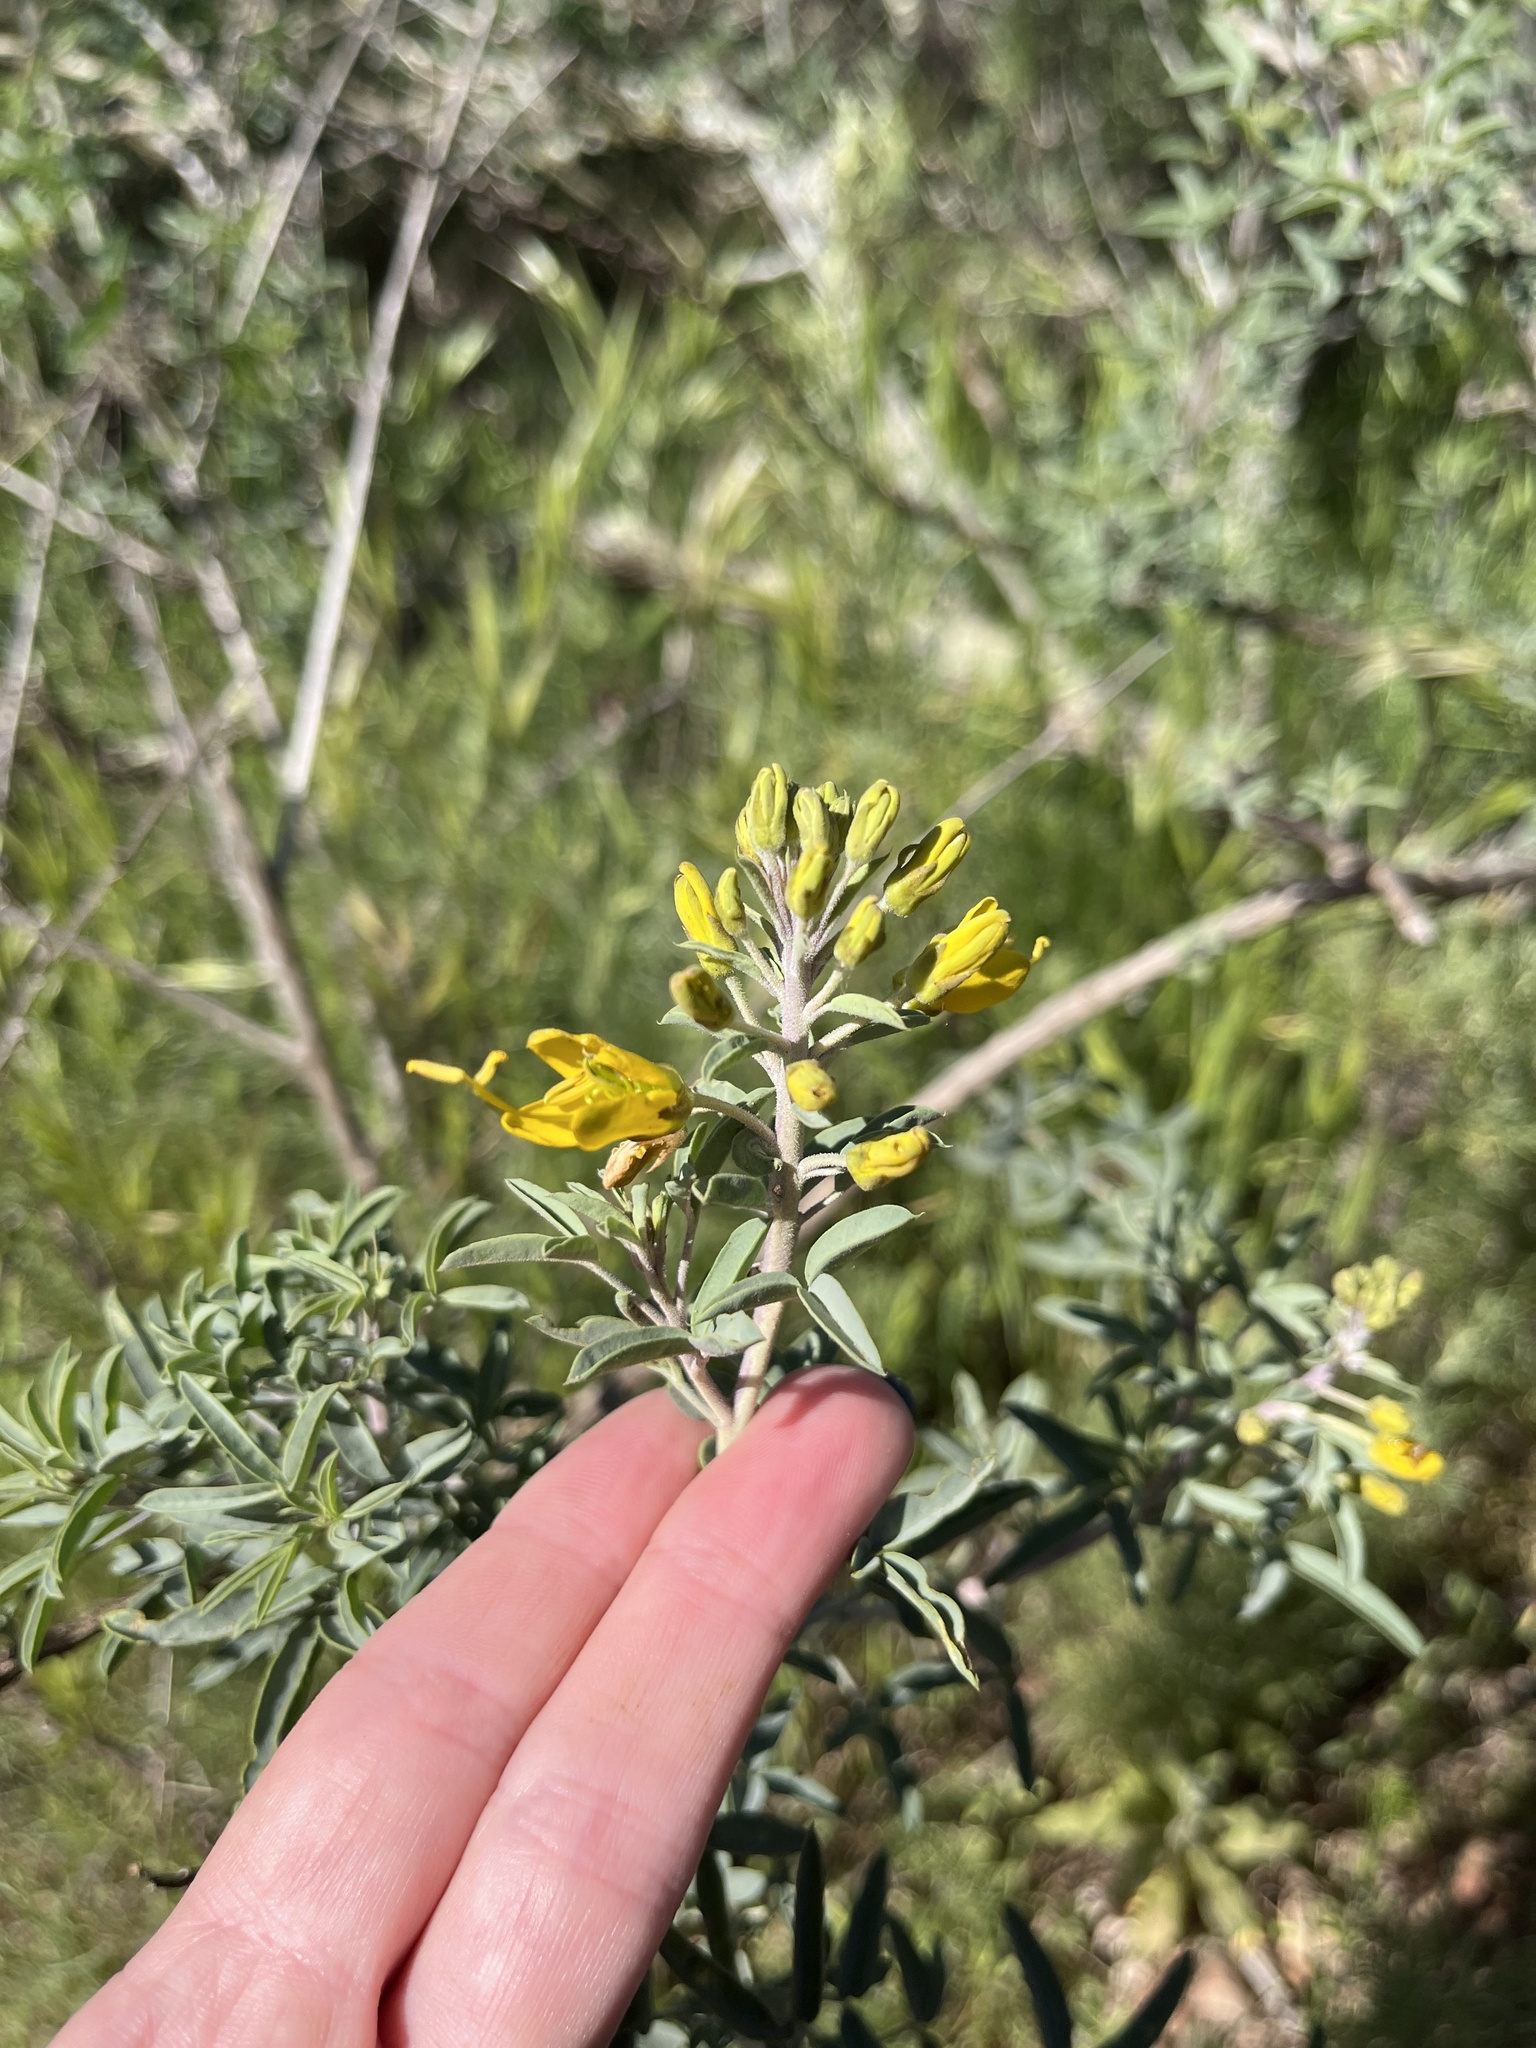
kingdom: Plantae
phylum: Tracheophyta
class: Magnoliopsida
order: Brassicales
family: Cleomaceae
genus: Cleomella
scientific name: Cleomella arborea
